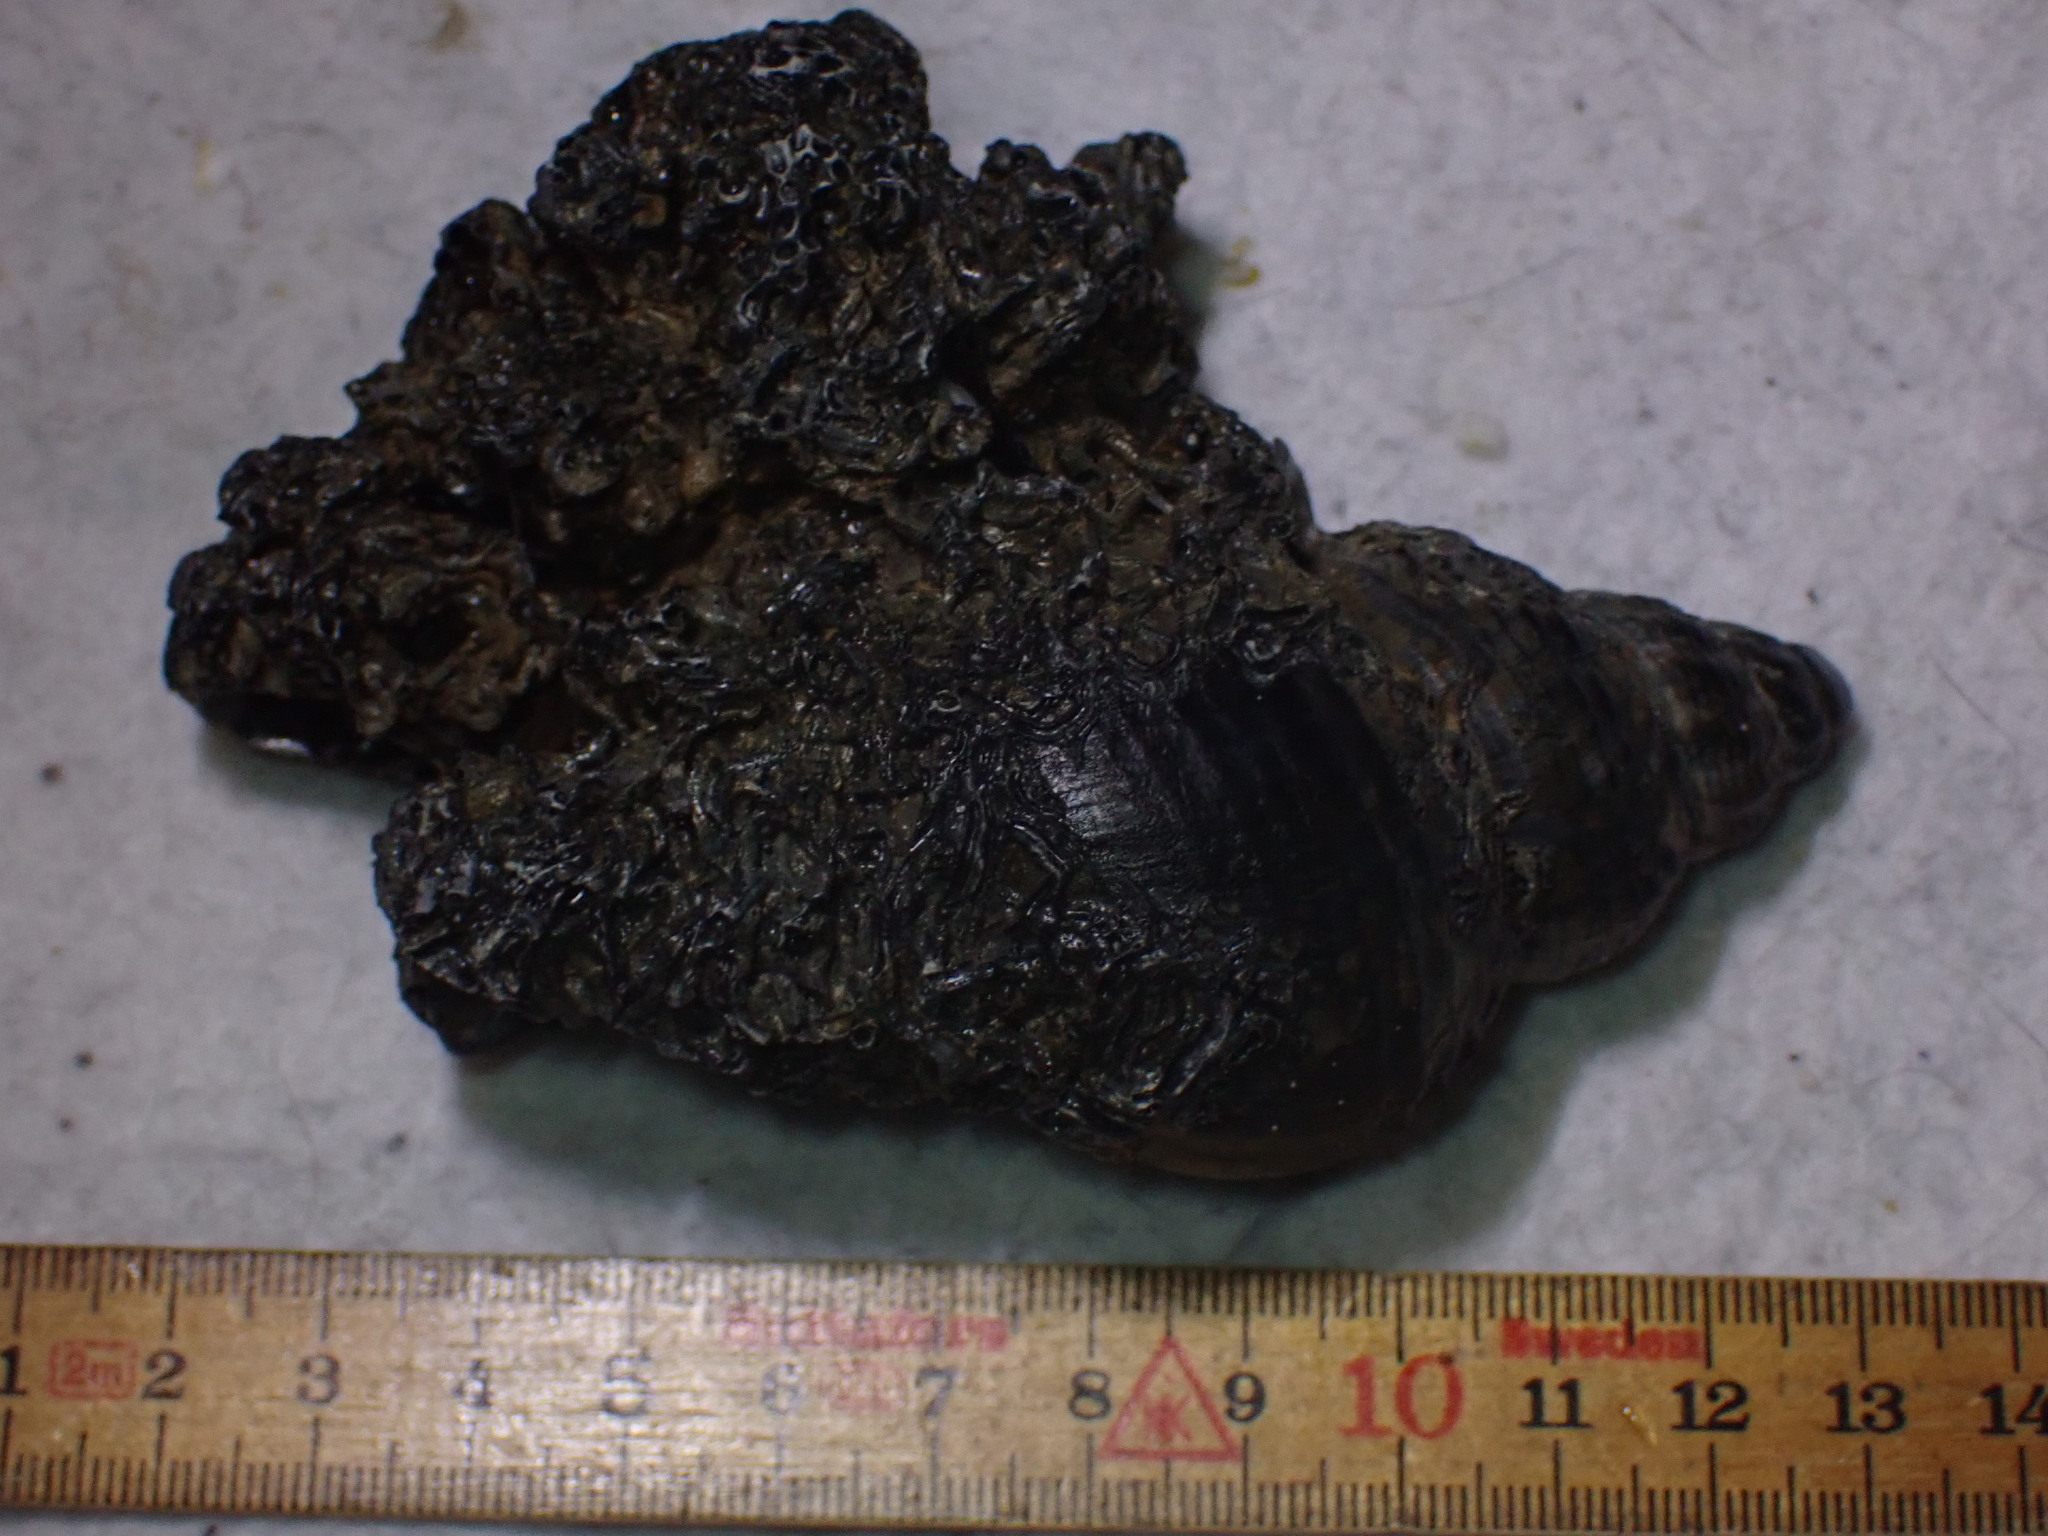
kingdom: Animalia
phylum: Mollusca
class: Gastropoda
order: Neogastropoda
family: Buccinidae
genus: Buccinum
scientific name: Buccinum undatum
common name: Common whelk
